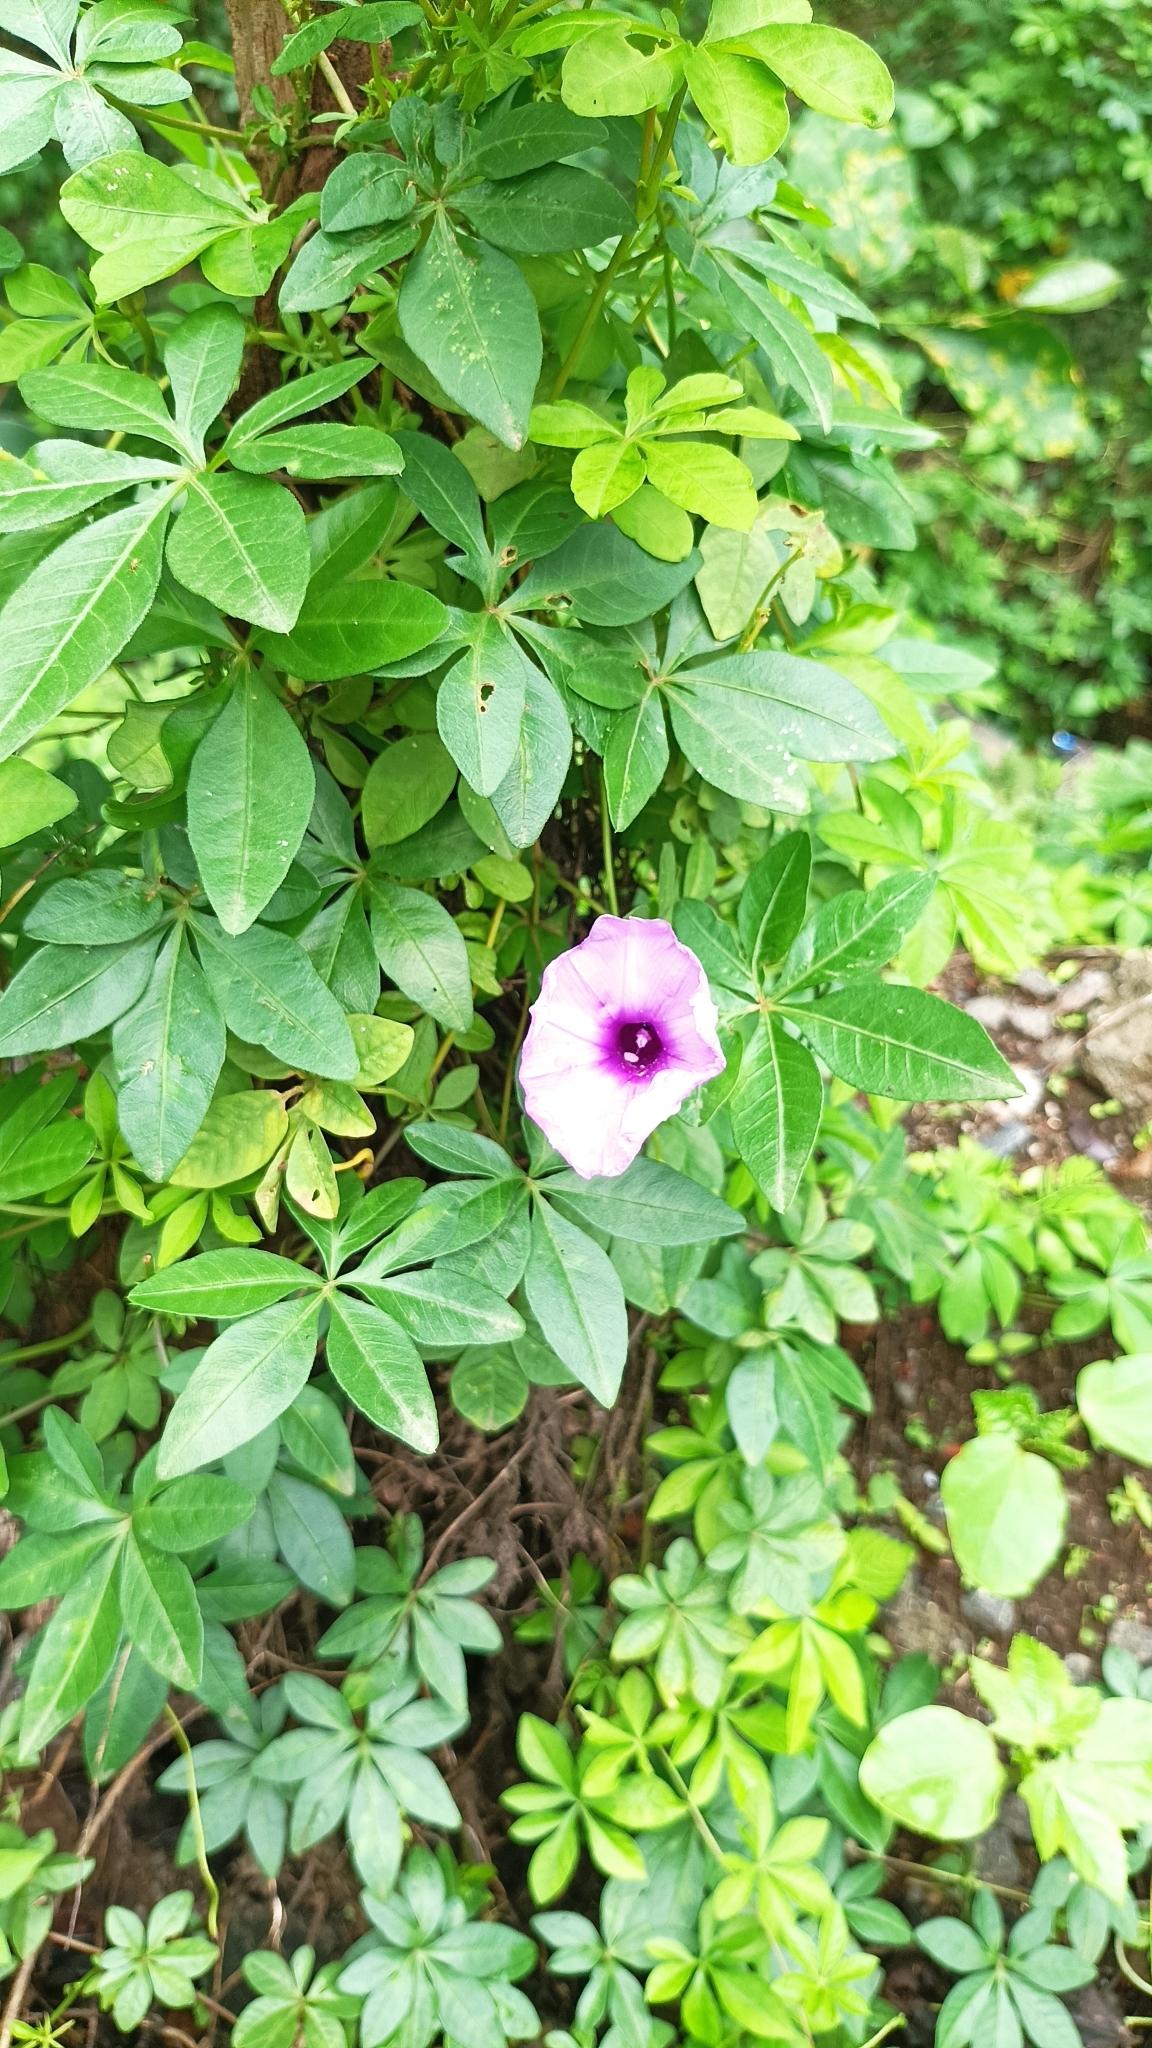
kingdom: Plantae
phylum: Tracheophyta
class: Magnoliopsida
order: Solanales
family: Convolvulaceae
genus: Ipomoea
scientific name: Ipomoea cairica
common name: Mile a minute vine
